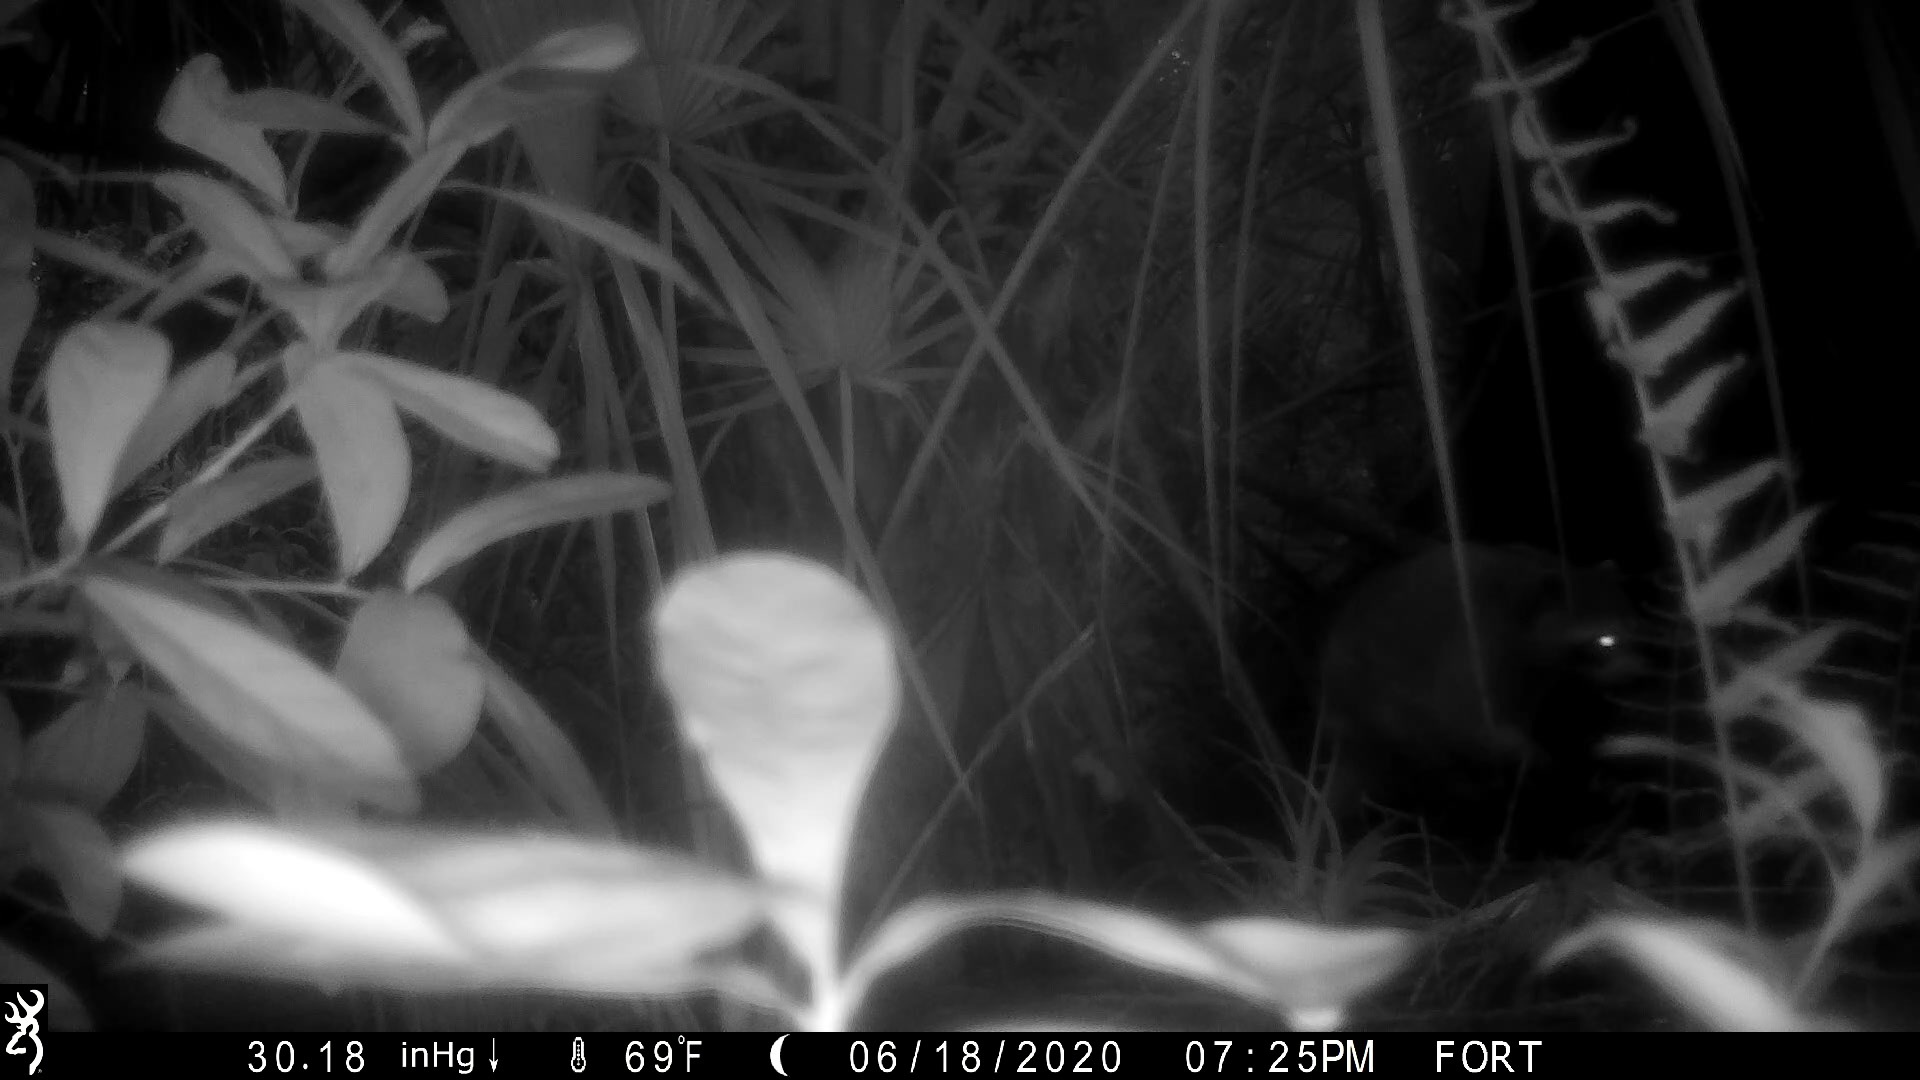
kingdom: Animalia
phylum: Chordata
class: Mammalia
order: Carnivora
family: Procyonidae
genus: Procyon
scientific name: Procyon lotor
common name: Raccoon
